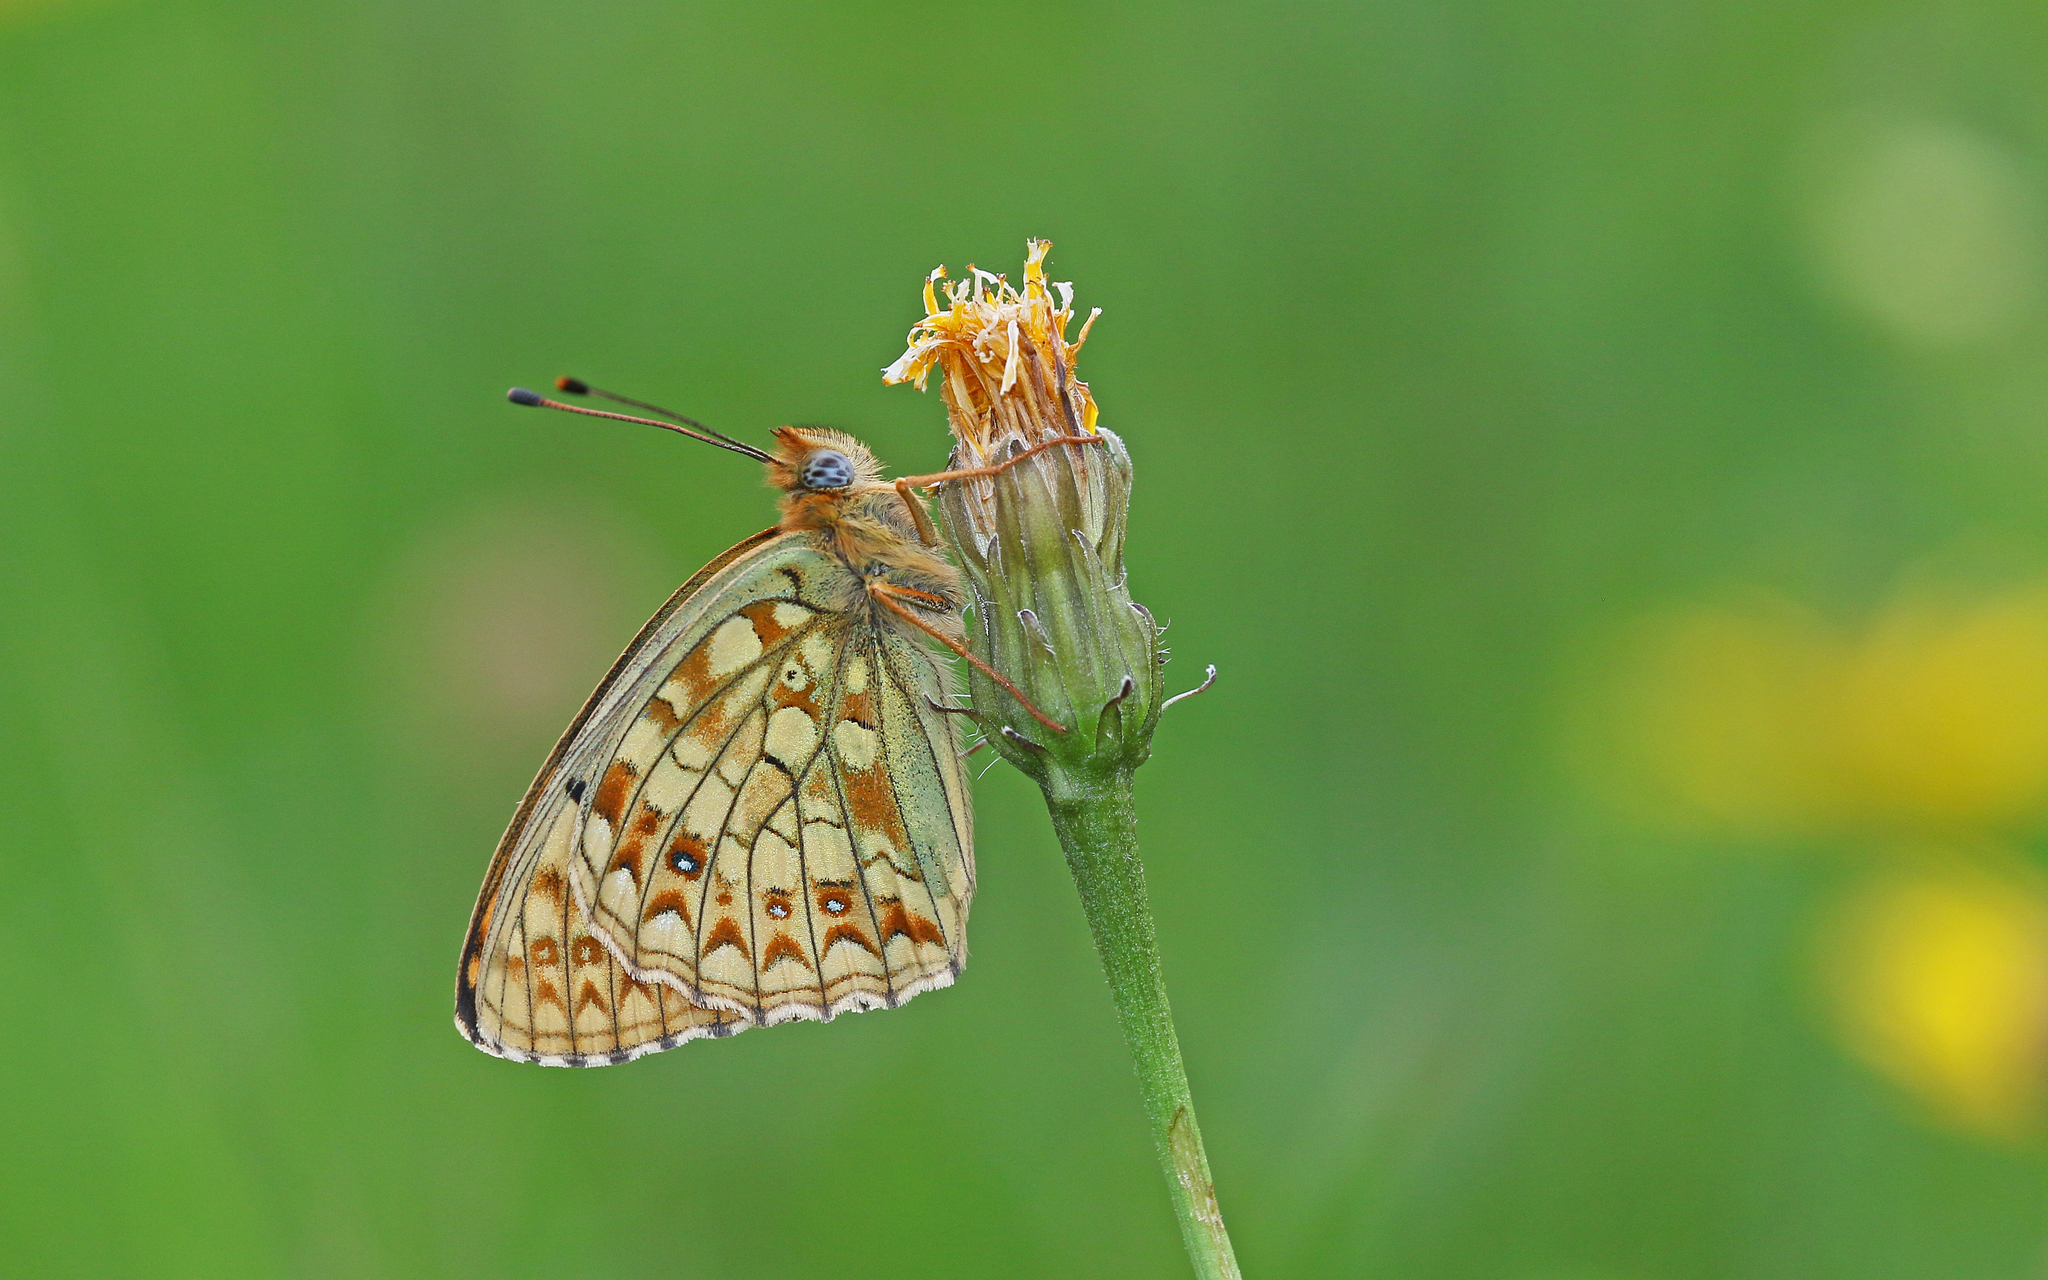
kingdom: Animalia
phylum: Arthropoda
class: Insecta
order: Lepidoptera
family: Nymphalidae
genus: Fabriciana
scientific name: Fabriciana niobe
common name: Niobe fritillary
